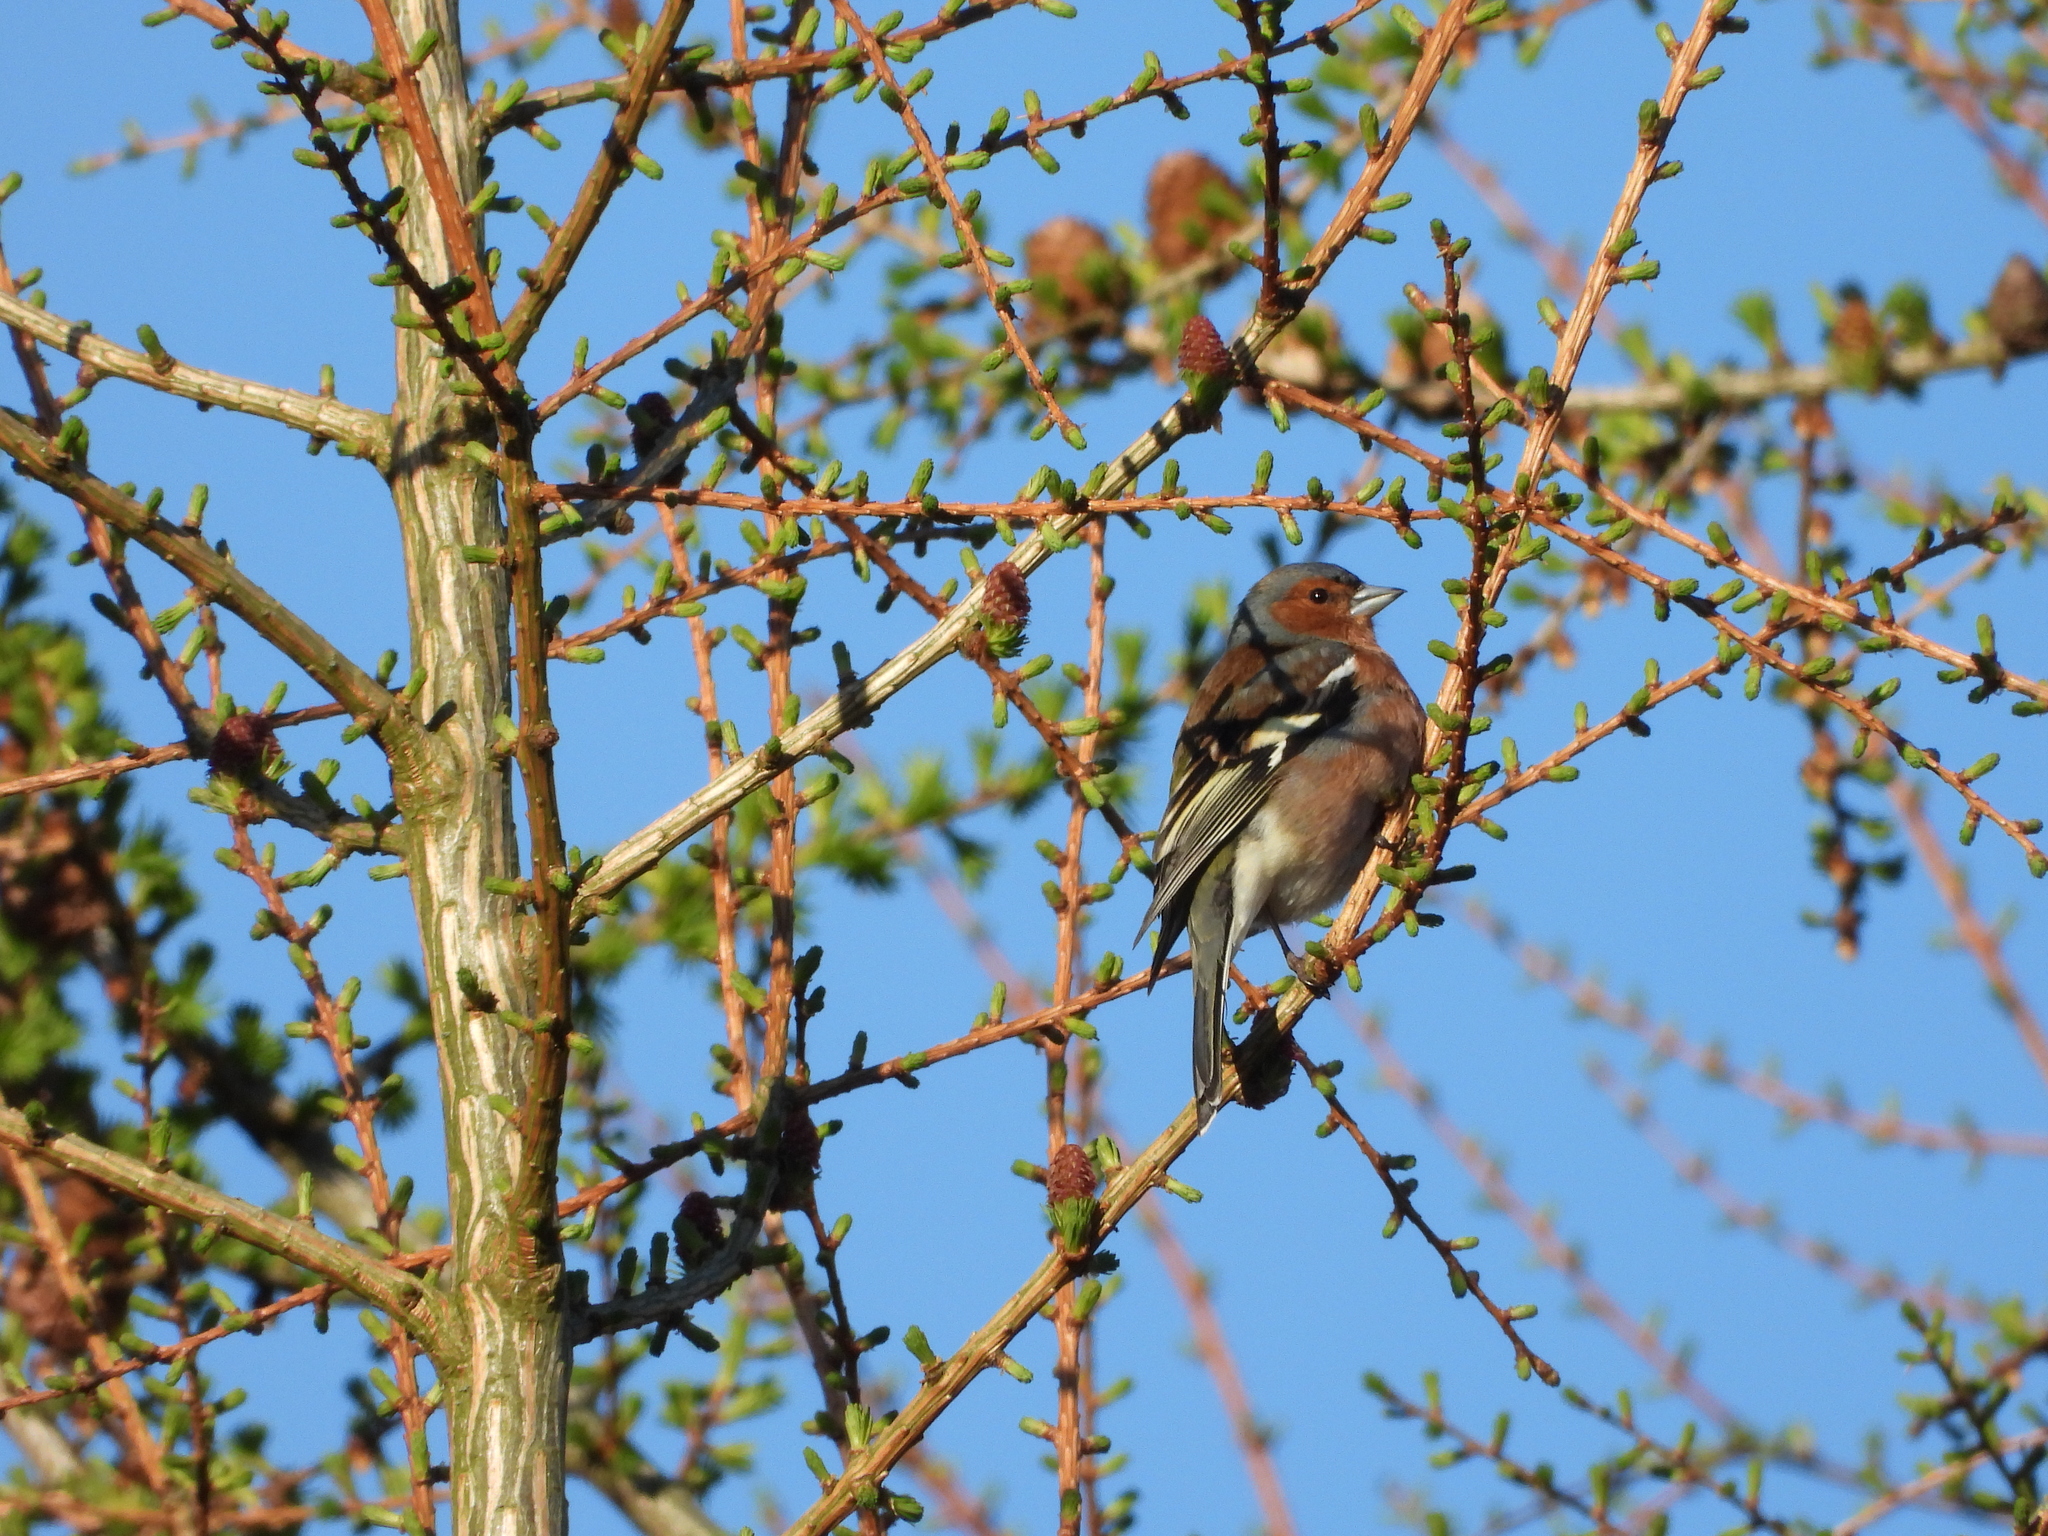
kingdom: Animalia
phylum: Chordata
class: Aves
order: Passeriformes
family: Fringillidae
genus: Fringilla
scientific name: Fringilla coelebs
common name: Common chaffinch
